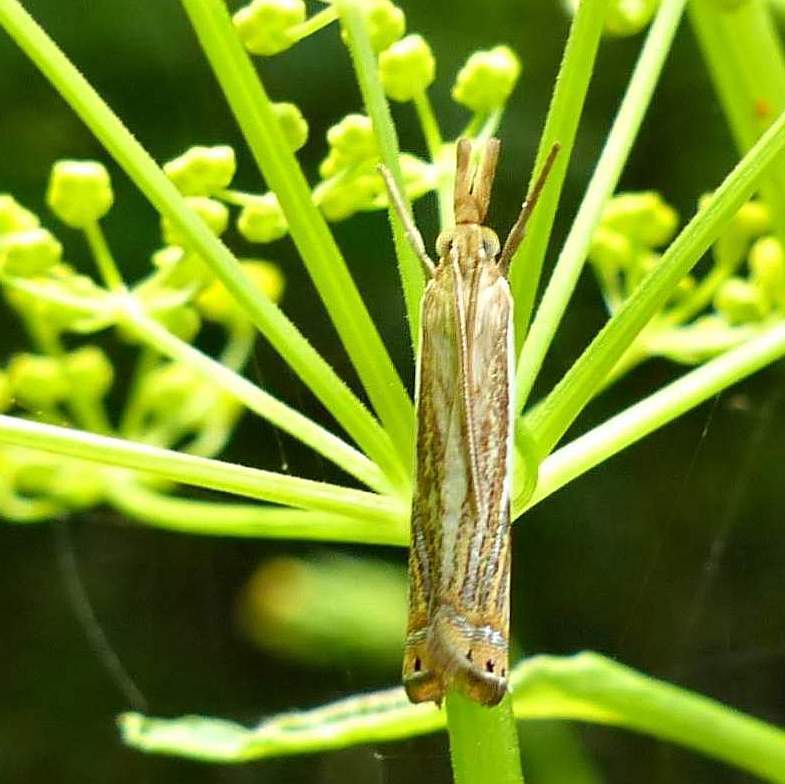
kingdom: Animalia
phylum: Arthropoda
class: Insecta
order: Lepidoptera
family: Crambidae
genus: Chrysoteuchia
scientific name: Chrysoteuchia topiarius
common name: Topiary grass-veneer
